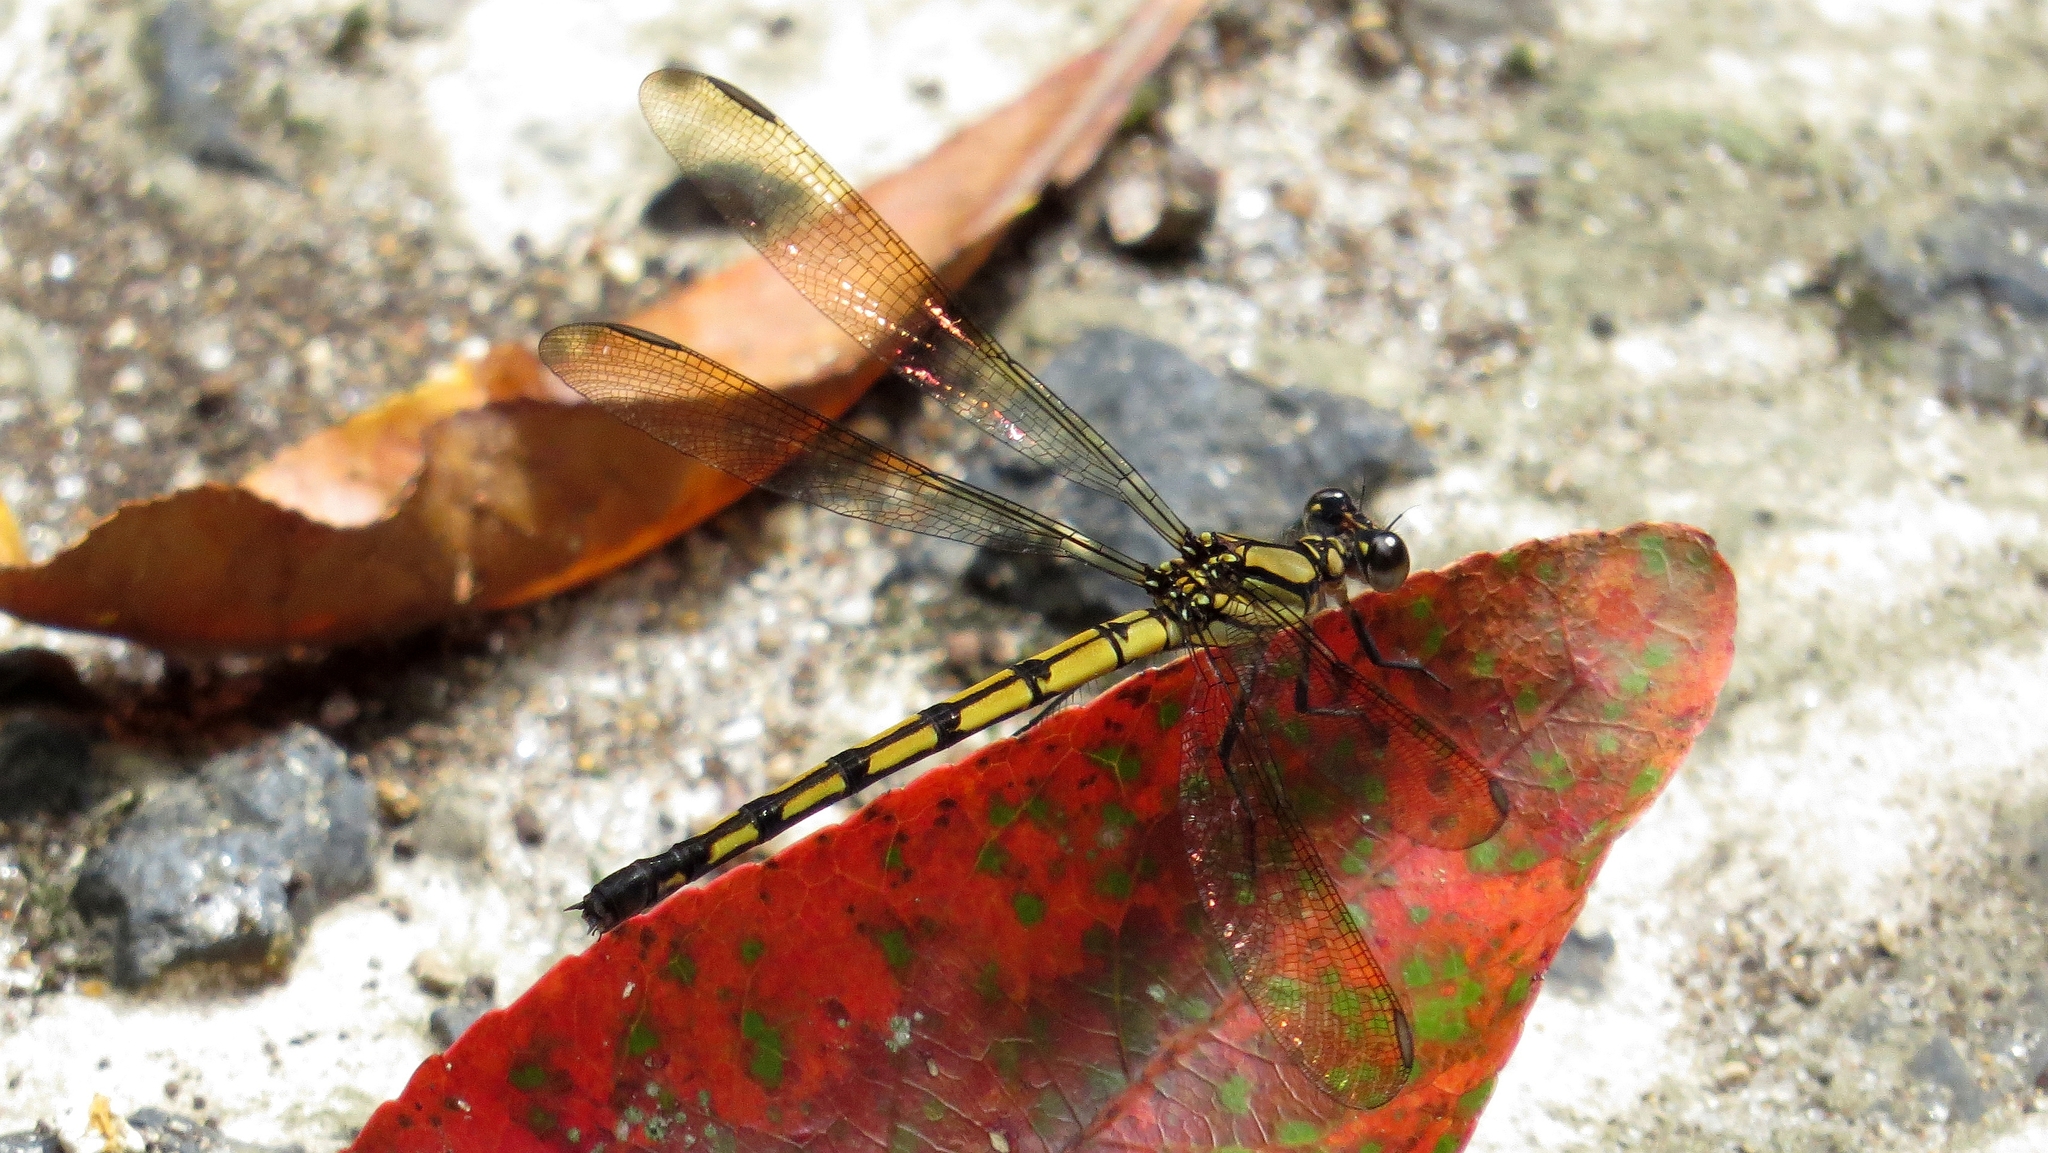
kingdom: Animalia
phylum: Arthropoda
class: Insecta
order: Odonata
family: Lestoideidae
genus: Diphlebia
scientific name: Diphlebia coerulescens
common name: Sapphire rockmaster
